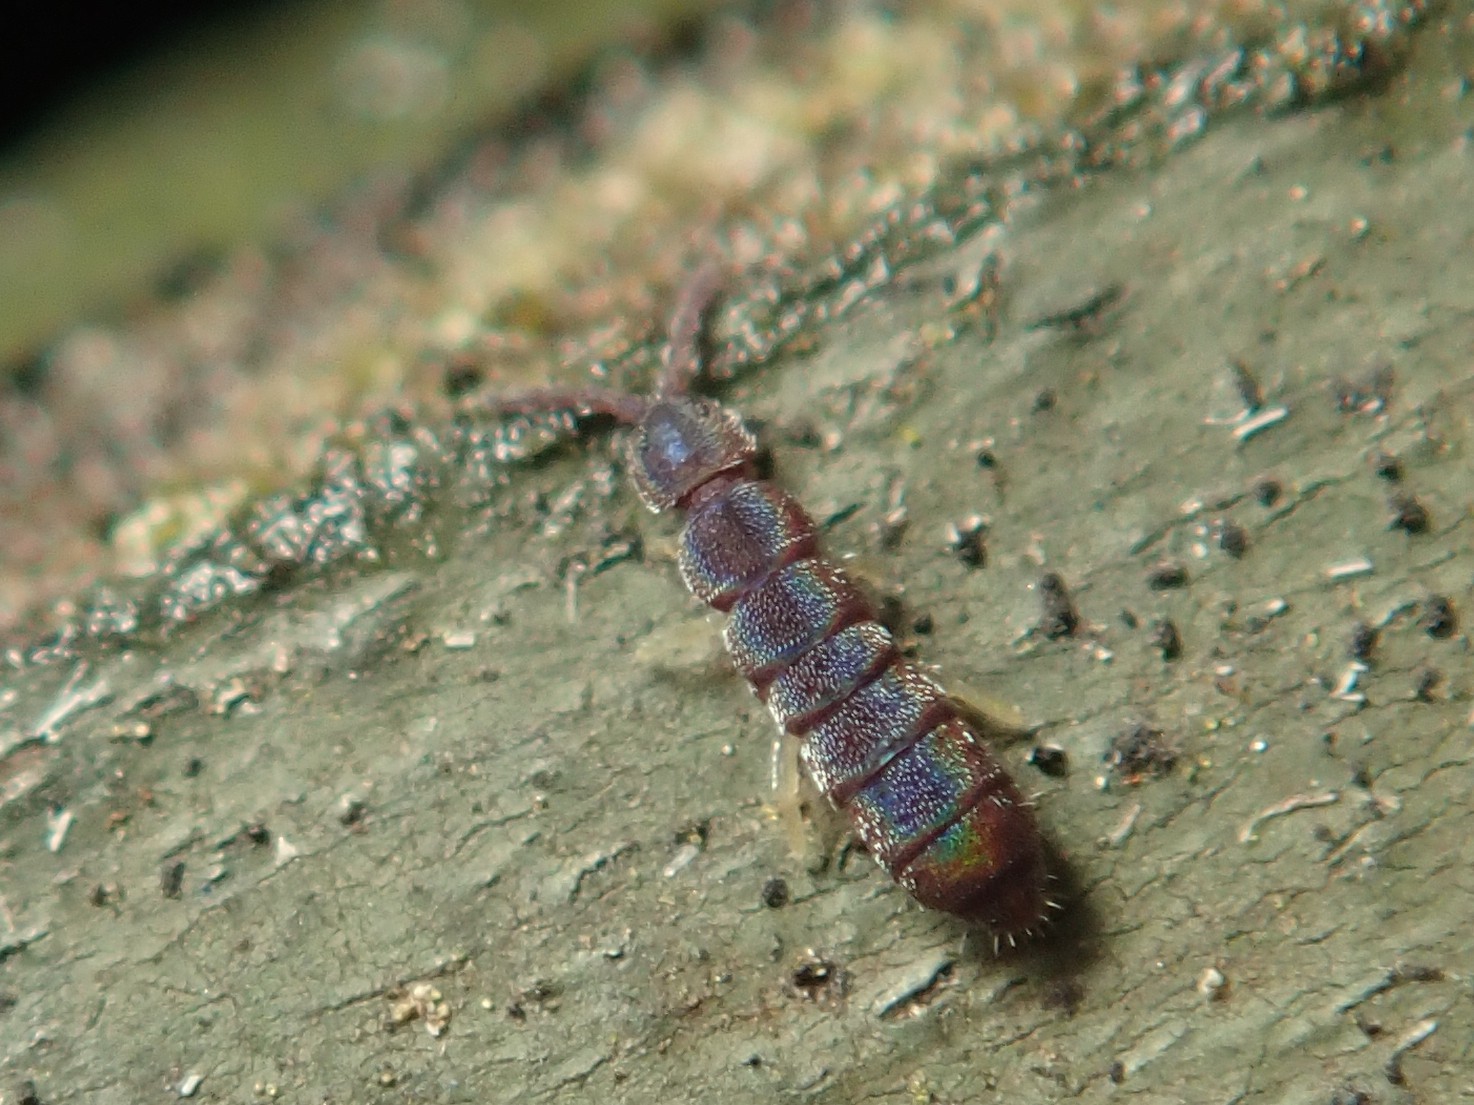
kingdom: Animalia
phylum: Arthropoda
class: Collembola
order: Entomobryomorpha
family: Isotomidae
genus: Vertagopus
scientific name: Vertagopus asiaticus
